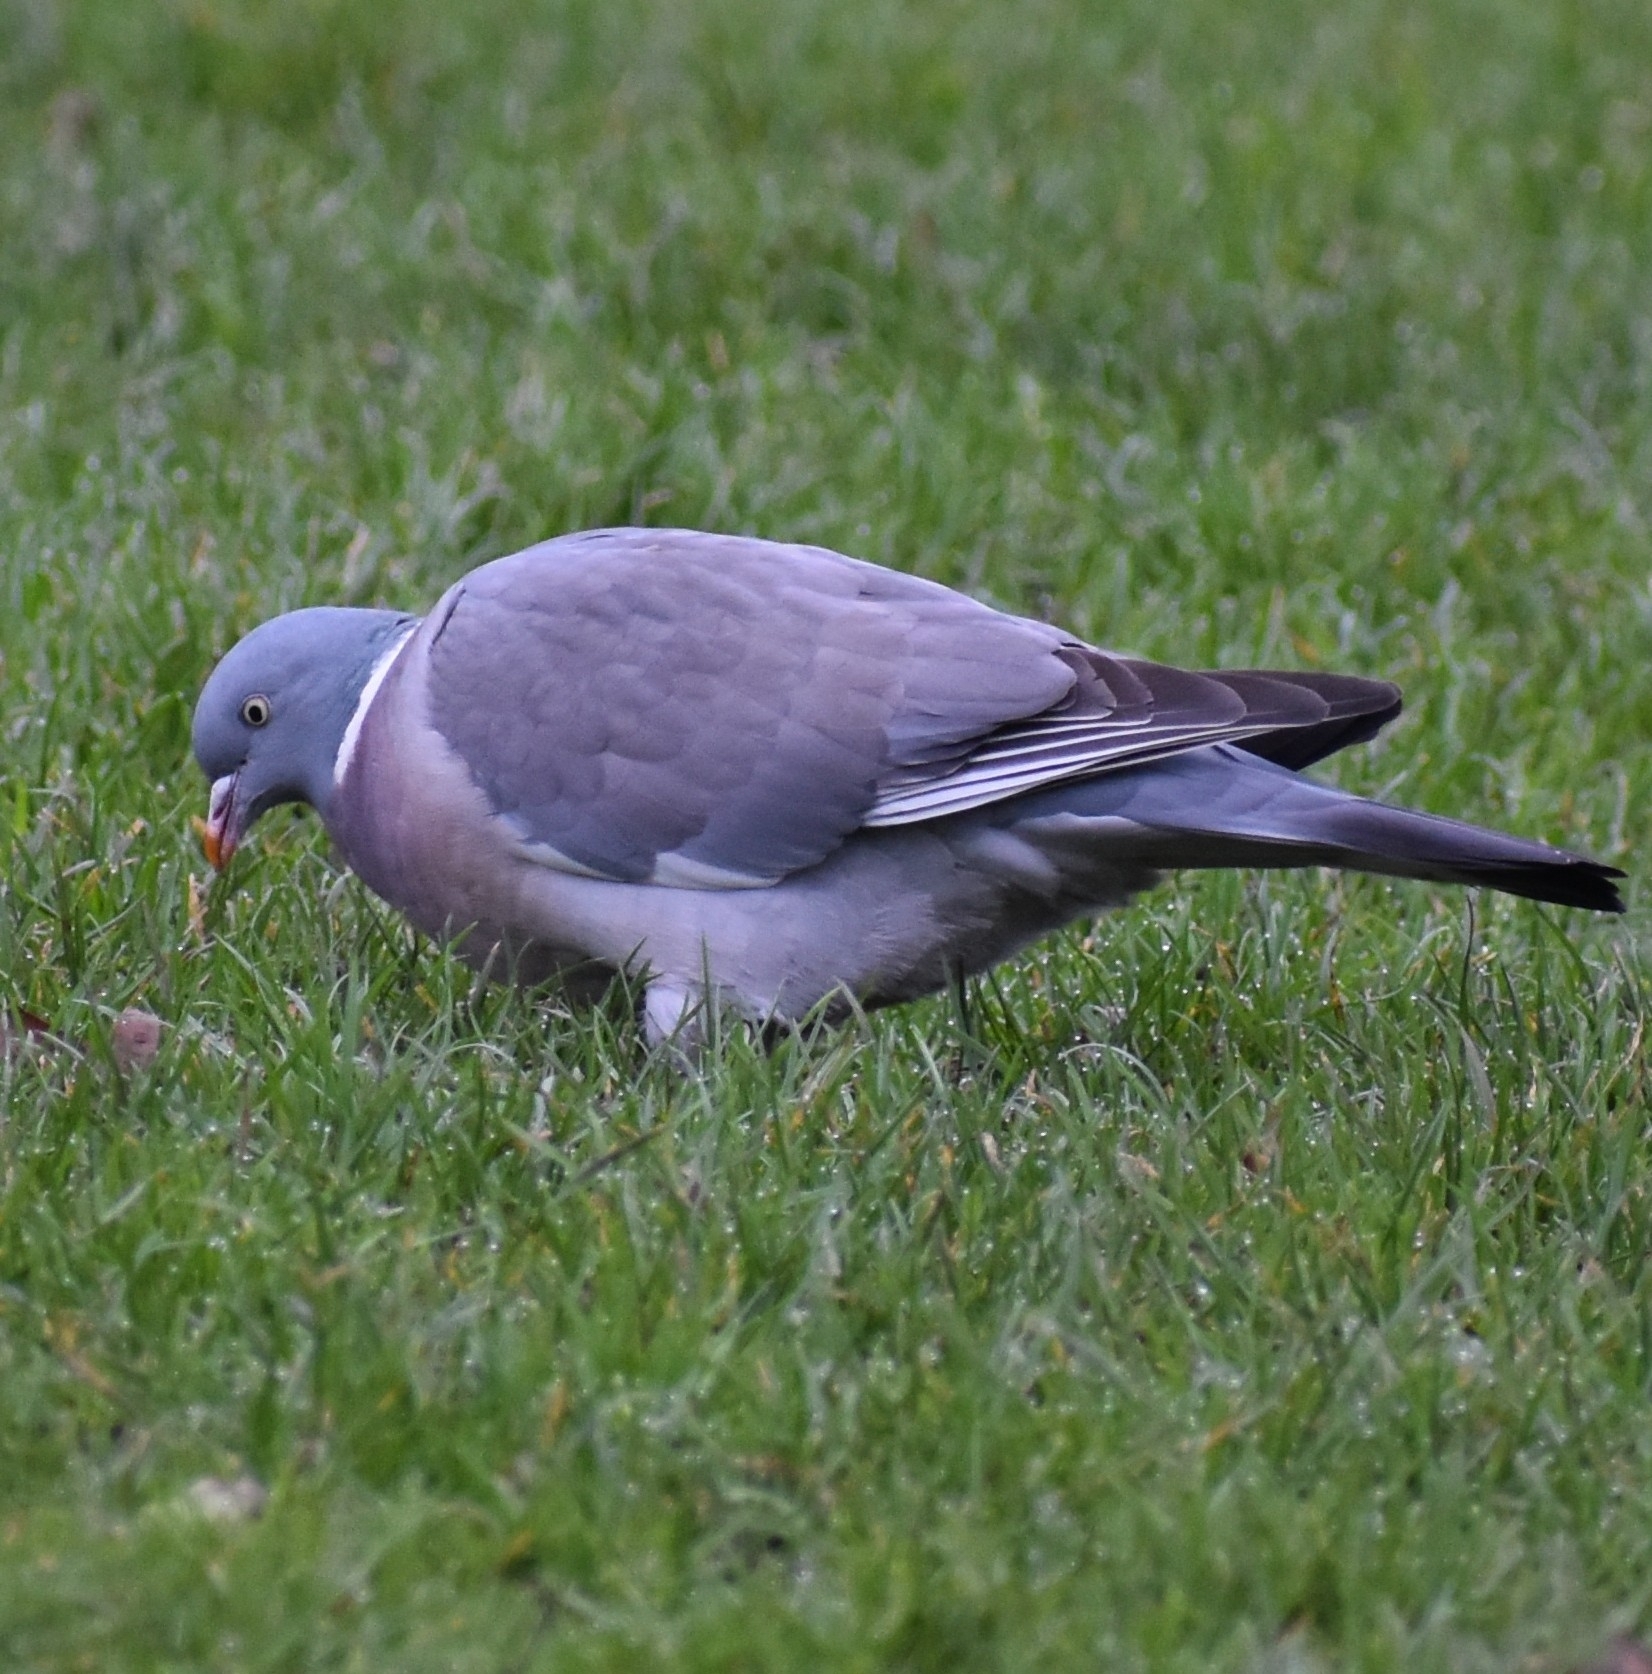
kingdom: Animalia
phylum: Chordata
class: Aves
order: Columbiformes
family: Columbidae
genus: Columba
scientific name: Columba palumbus
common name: Common wood pigeon
